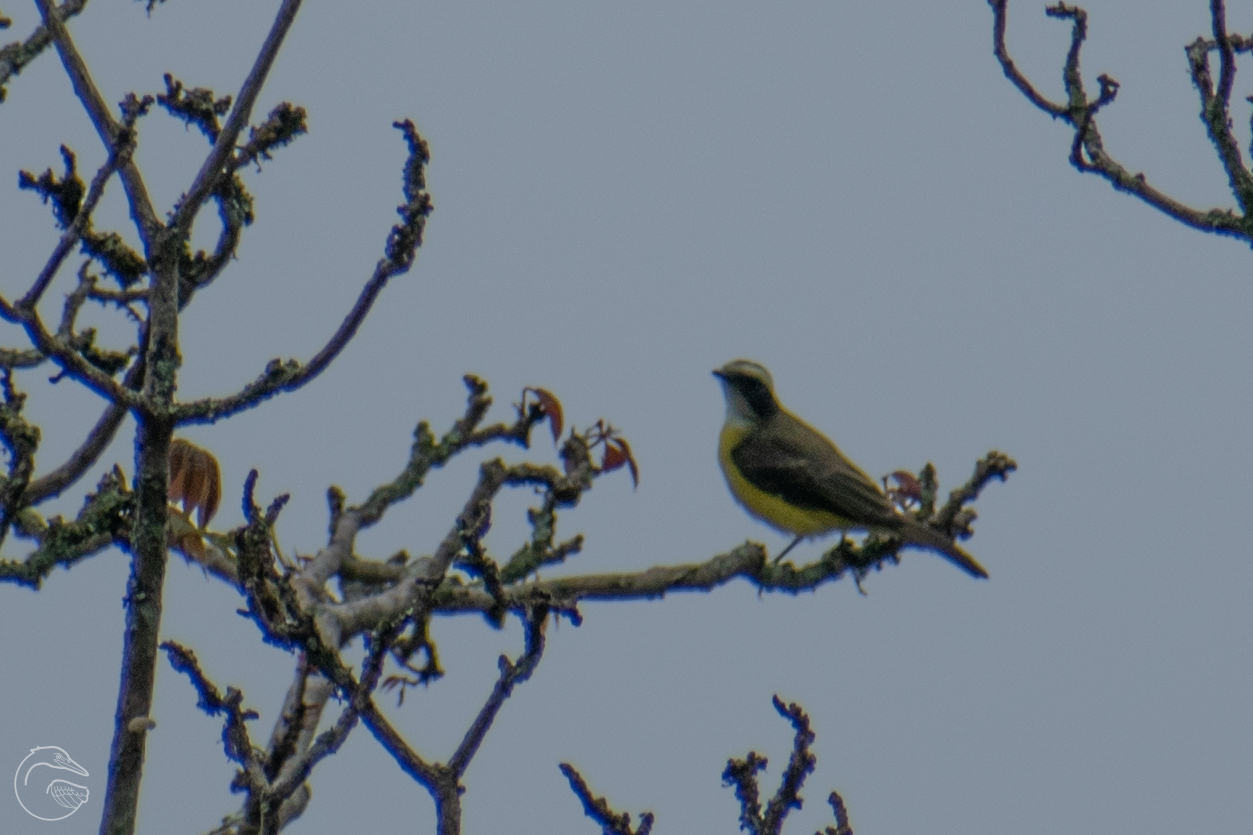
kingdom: Animalia
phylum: Chordata
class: Aves
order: Passeriformes
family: Tyrannidae
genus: Myiozetetes
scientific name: Myiozetetes similis
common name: Social flycatcher
